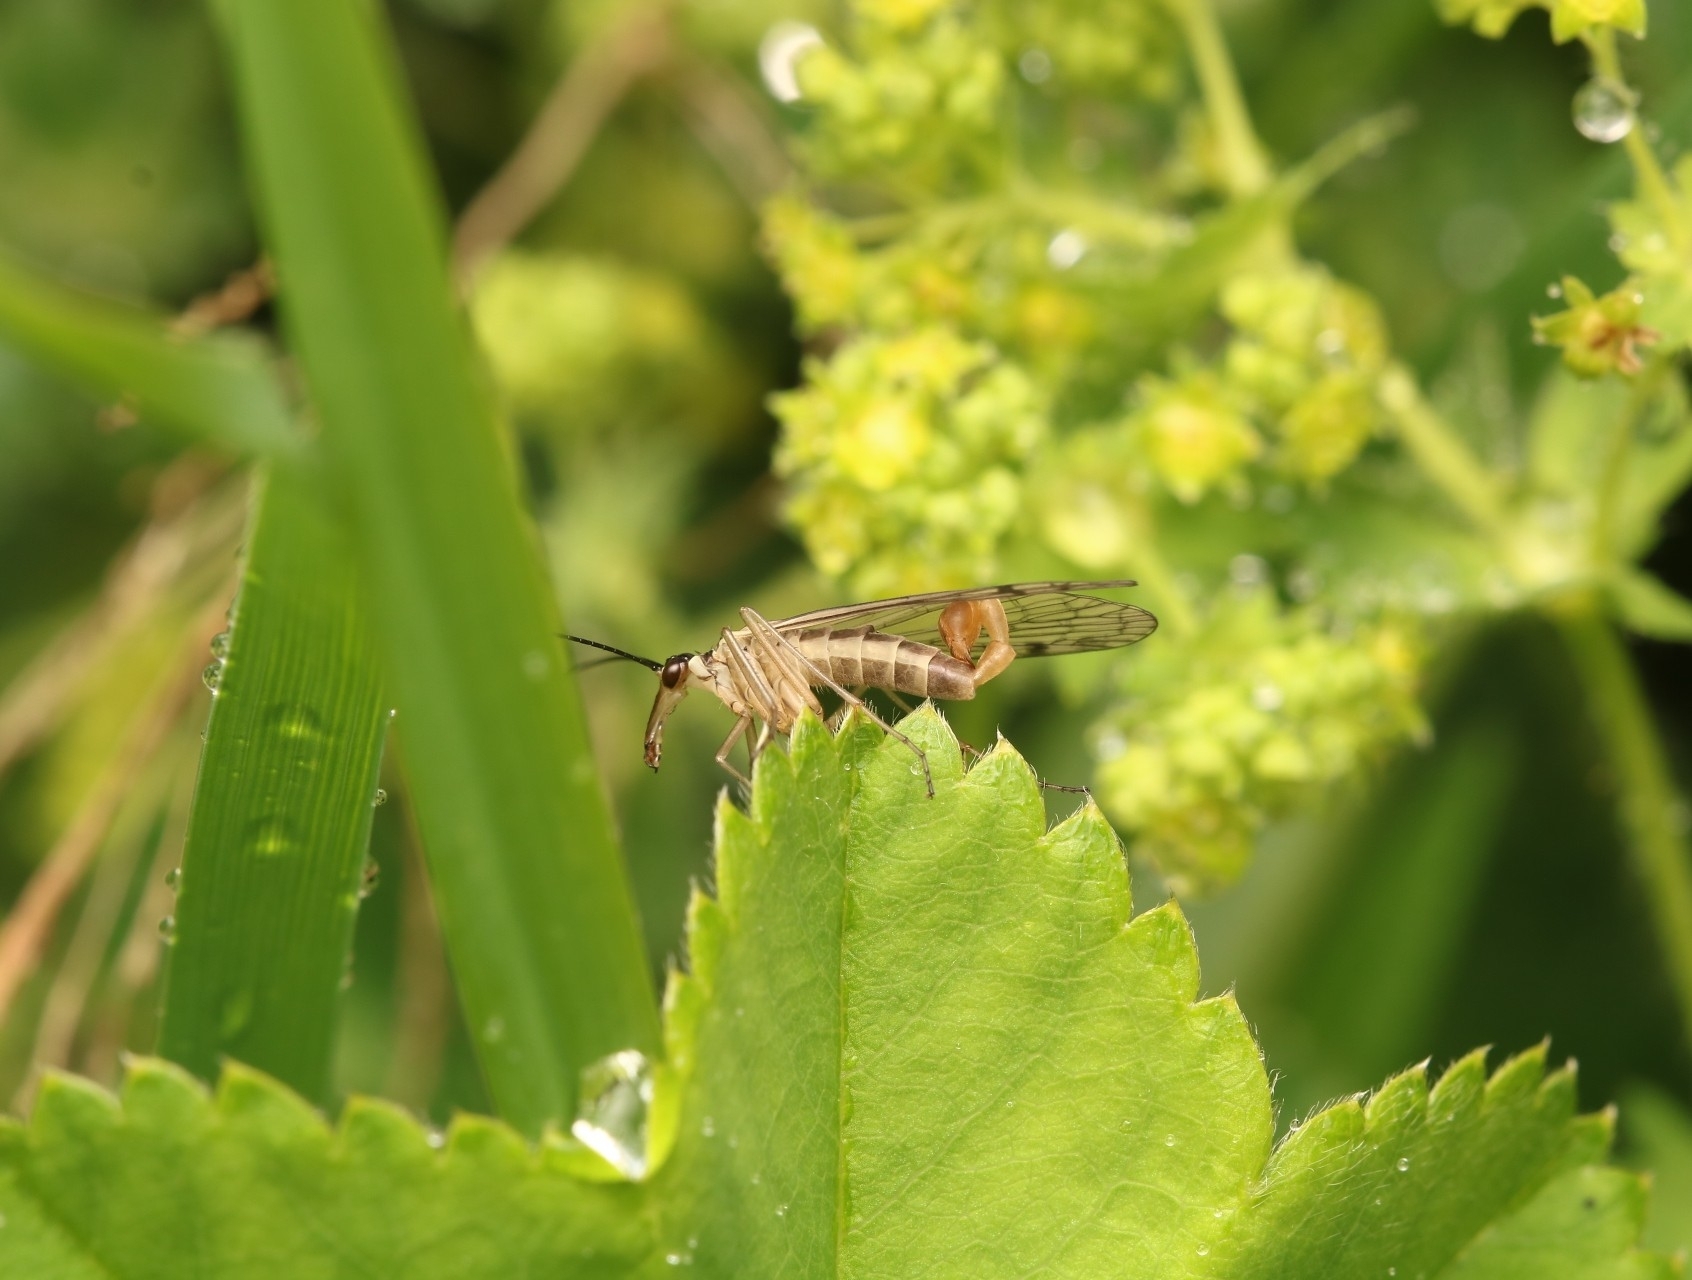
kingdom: Animalia
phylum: Arthropoda
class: Insecta
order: Mecoptera
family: Panorpidae
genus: Panorpa
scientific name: Panorpa alpina
